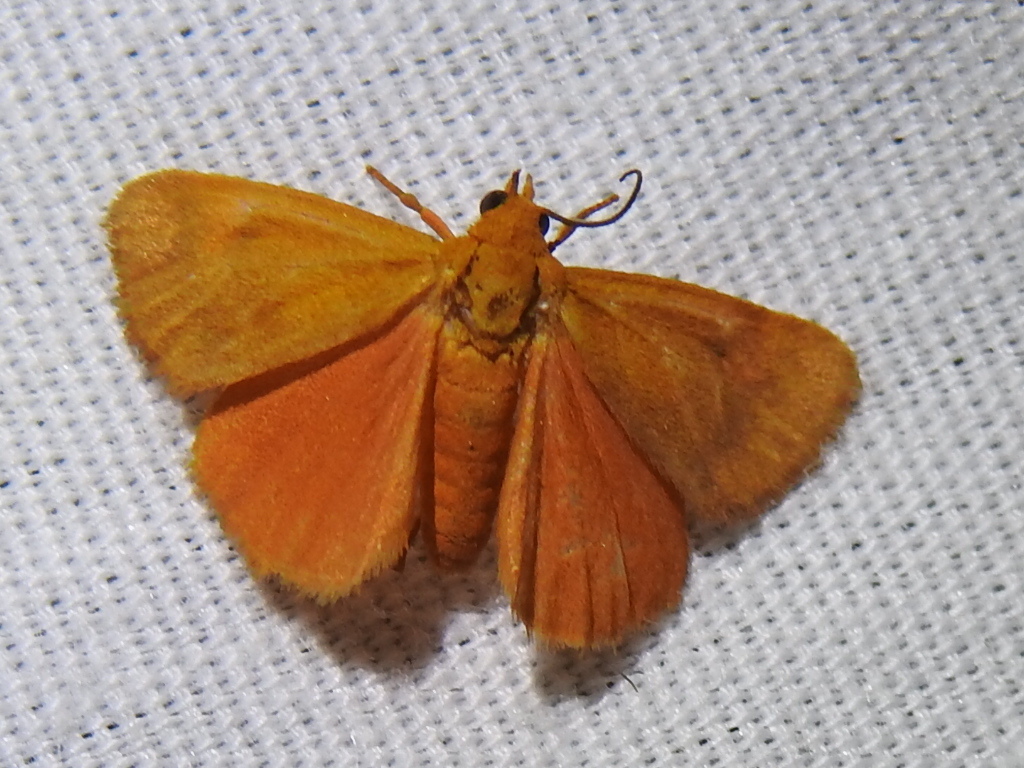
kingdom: Animalia
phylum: Arthropoda
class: Insecta
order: Lepidoptera
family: Erebidae
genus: Virbia
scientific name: Virbia aurantiaca
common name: Orange virbia moth
